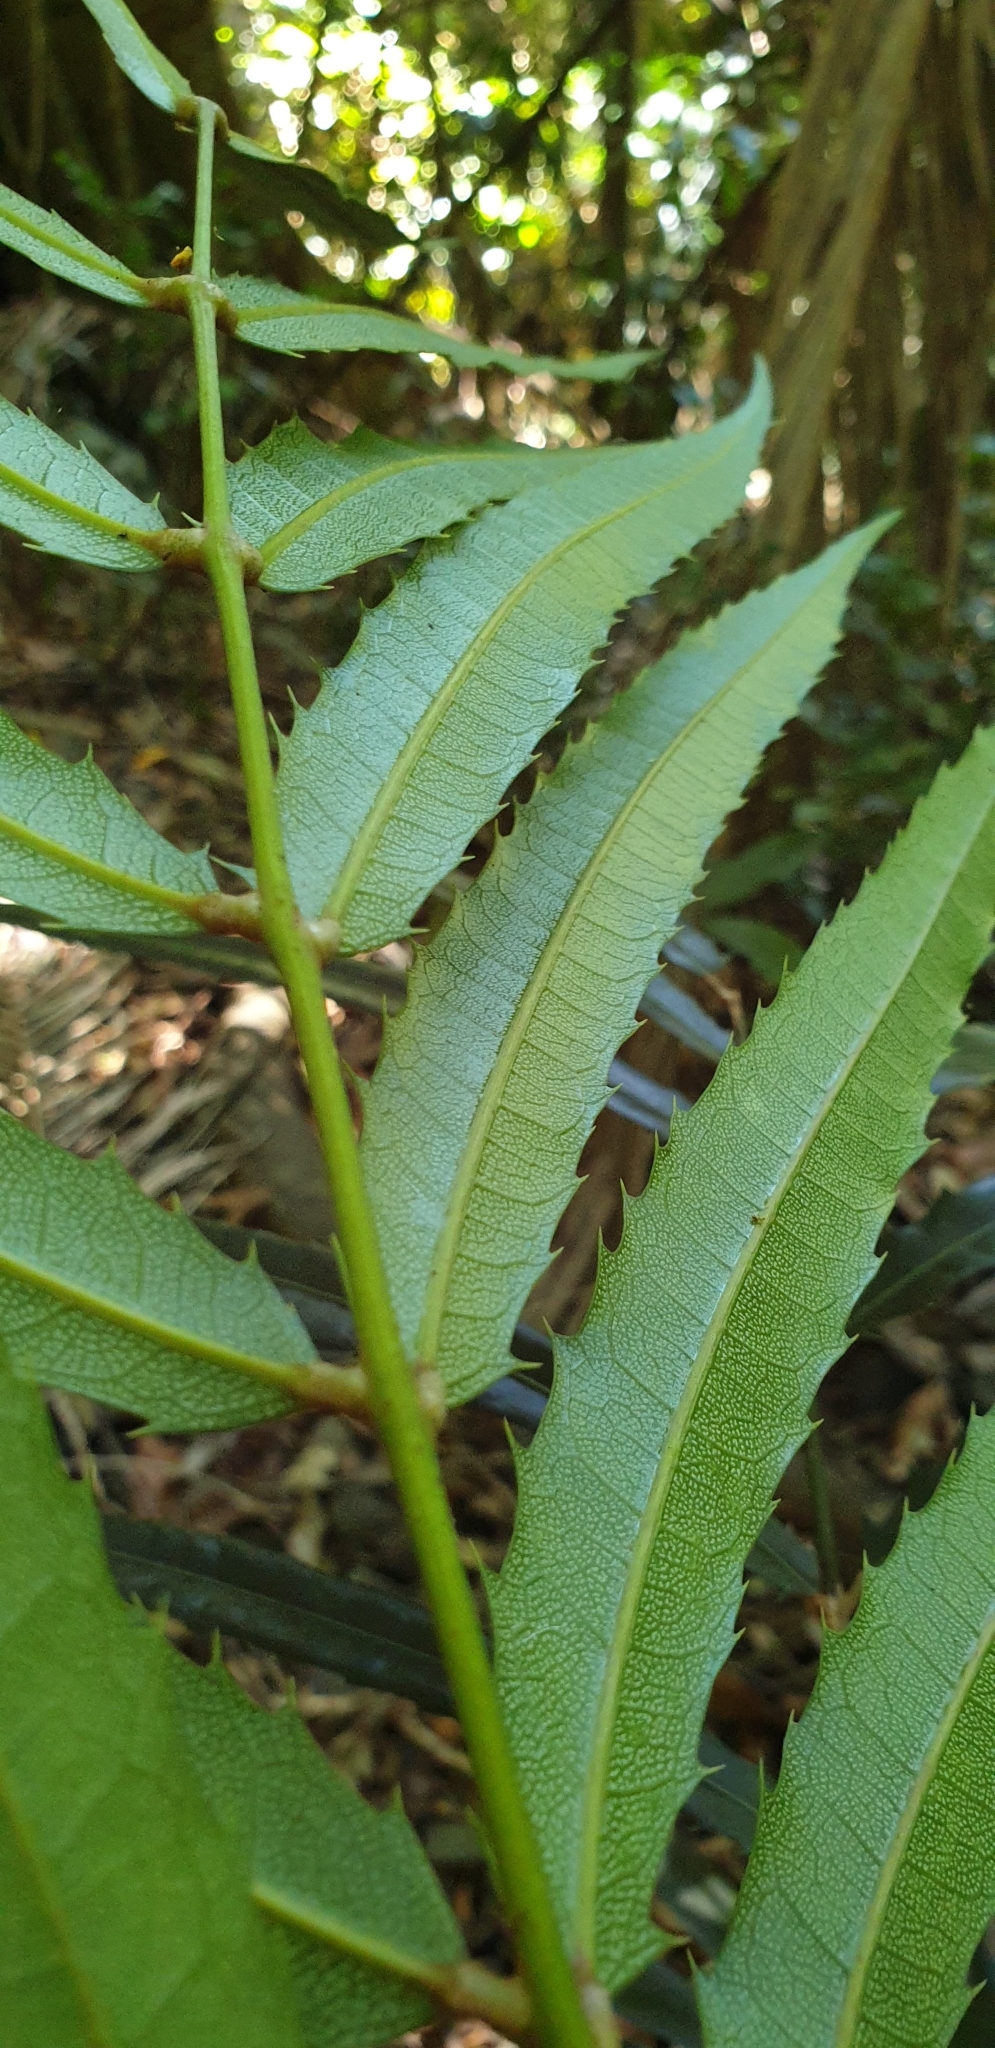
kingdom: Plantae
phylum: Tracheophyta
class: Magnoliopsida
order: Brassicales
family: Akaniaceae
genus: Akania
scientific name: Akania bidwillii
